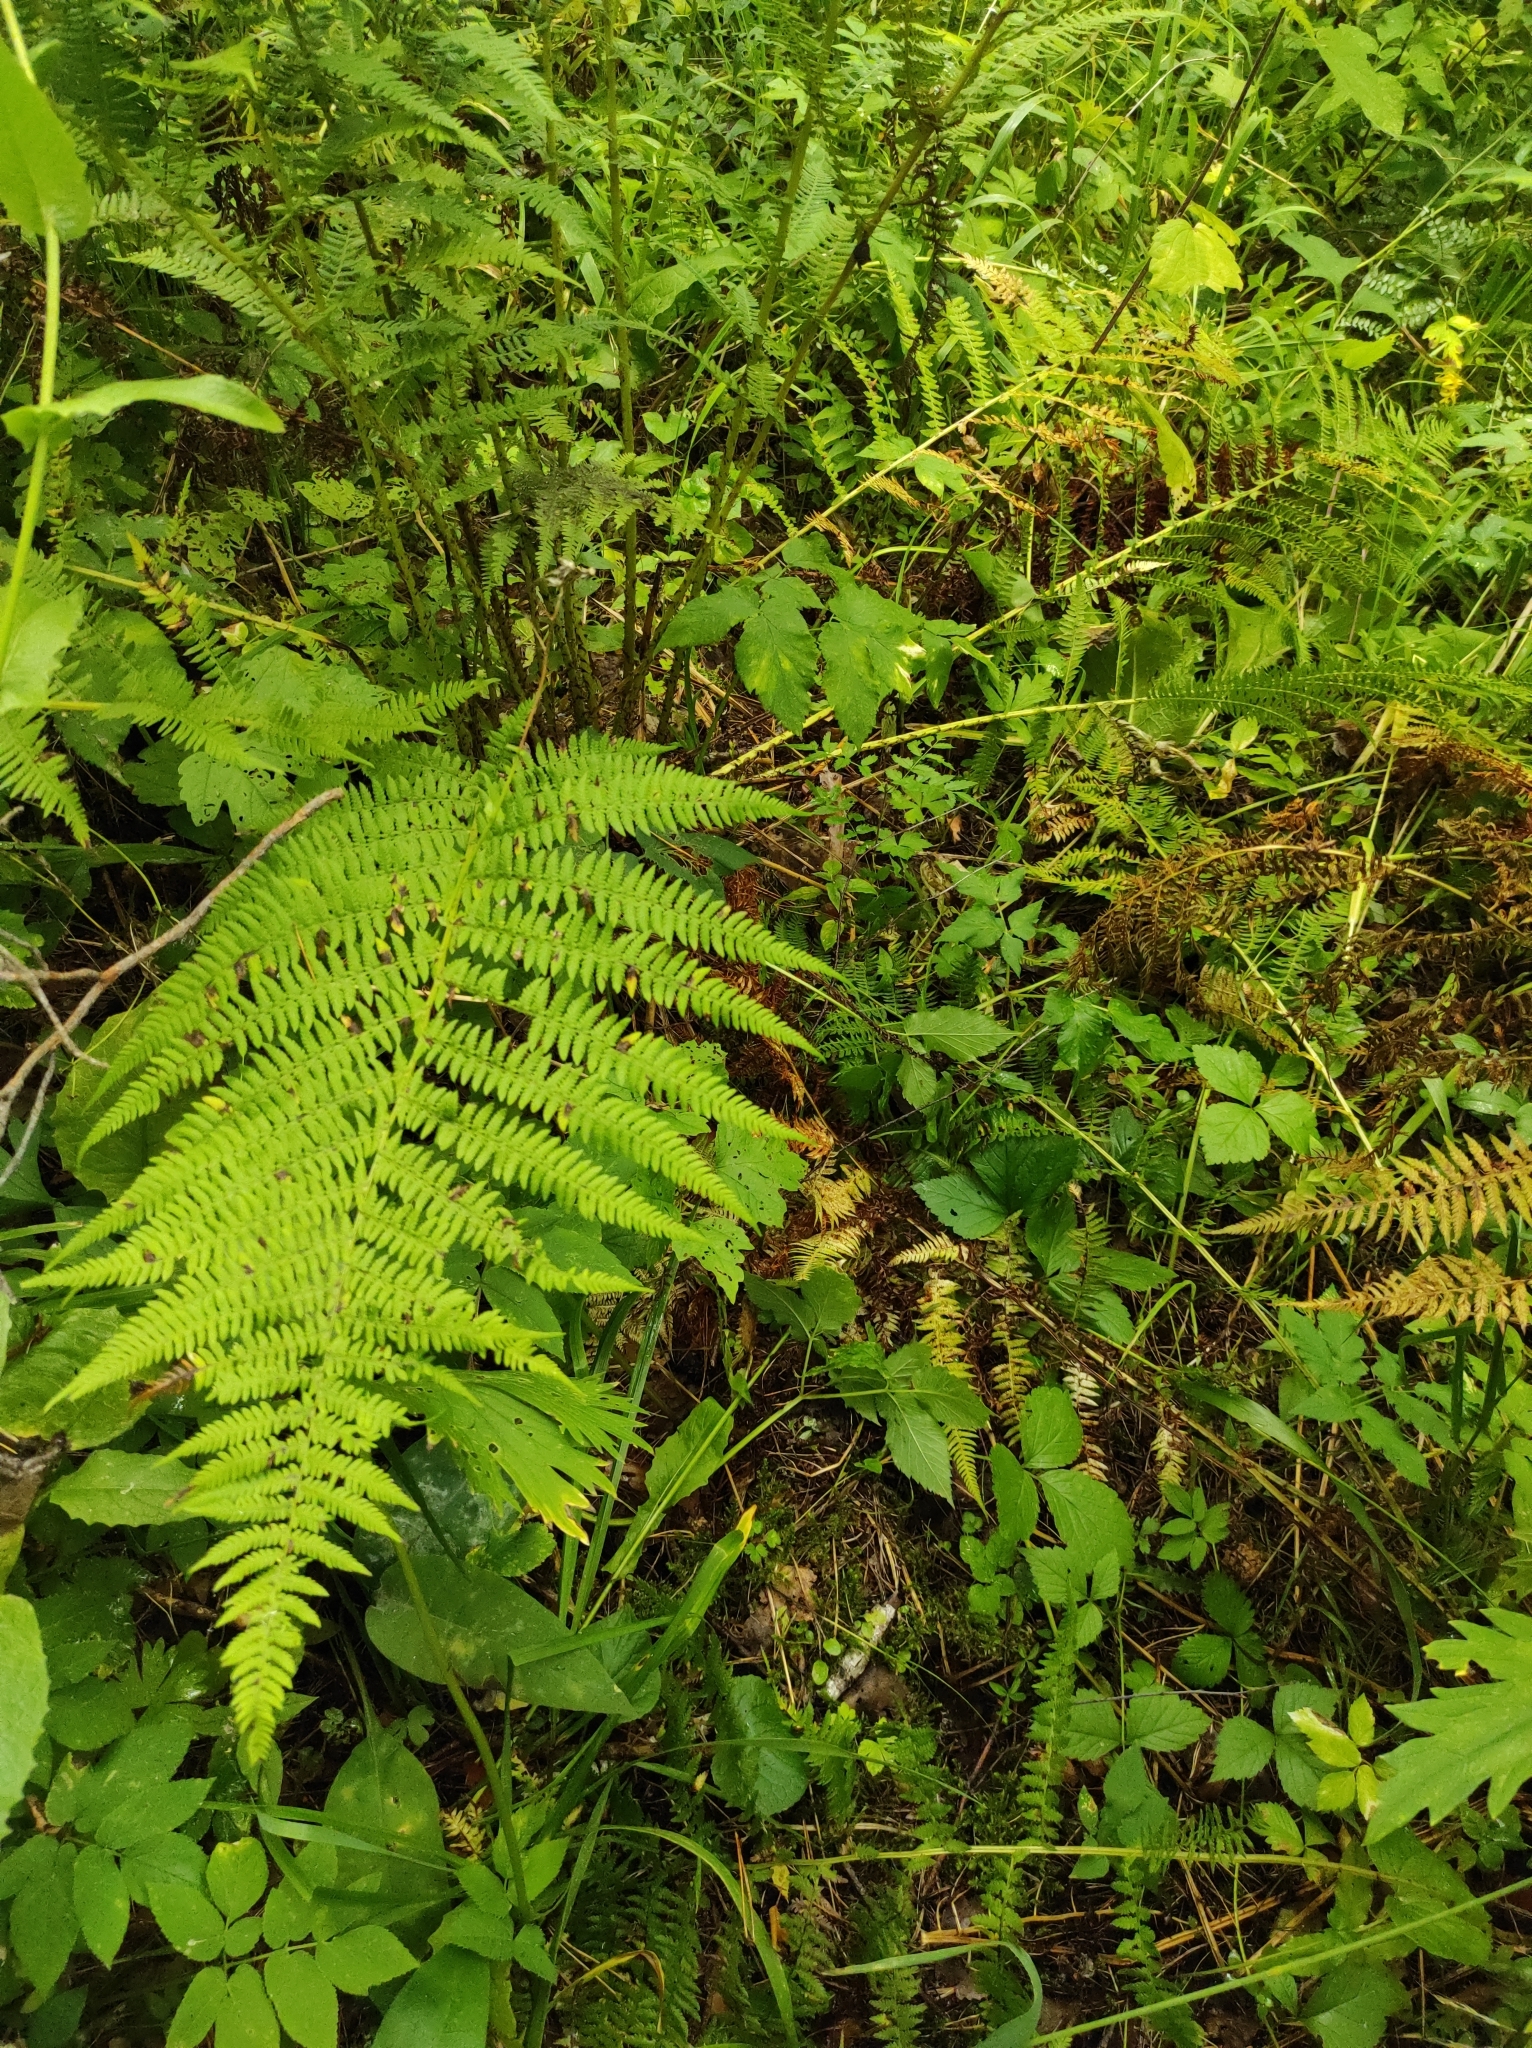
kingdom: Plantae
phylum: Tracheophyta
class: Polypodiopsida
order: Polypodiales
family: Athyriaceae
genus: Athyrium
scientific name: Athyrium filix-femina
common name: Lady fern
